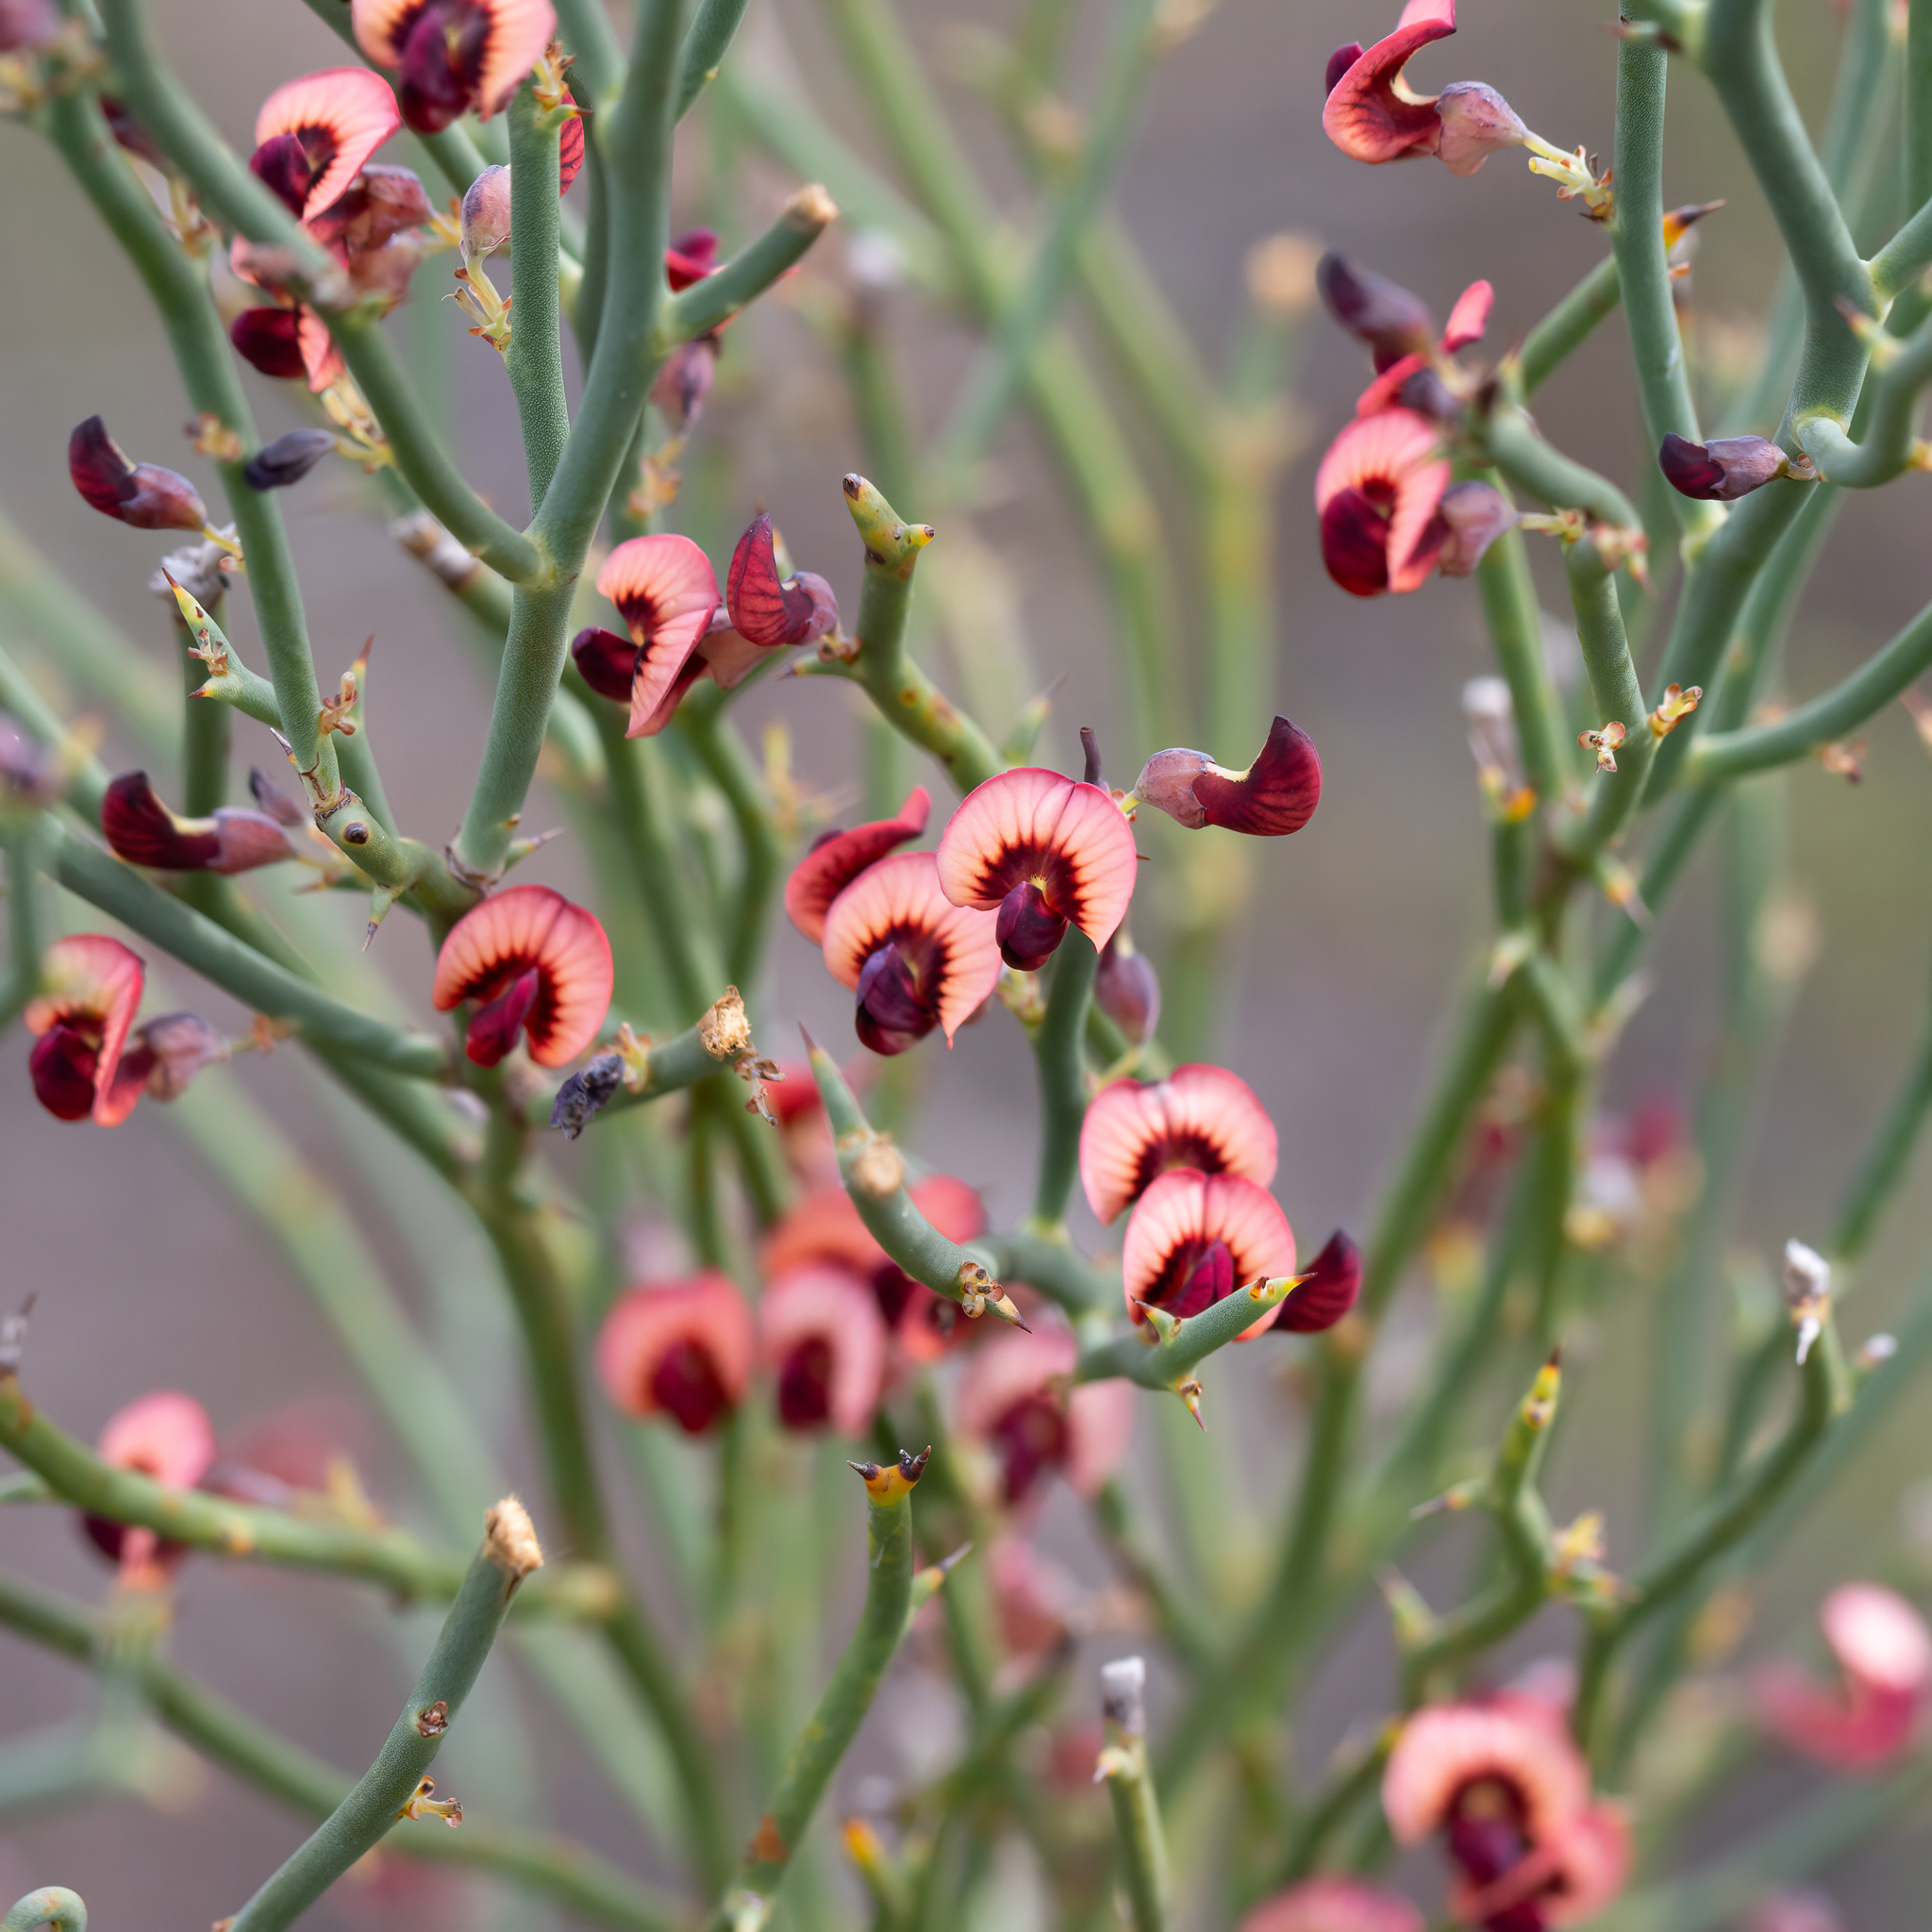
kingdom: Plantae
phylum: Tracheophyta
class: Magnoliopsida
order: Fabales
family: Fabaceae
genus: Daviesia
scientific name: Daviesia brevifolia
